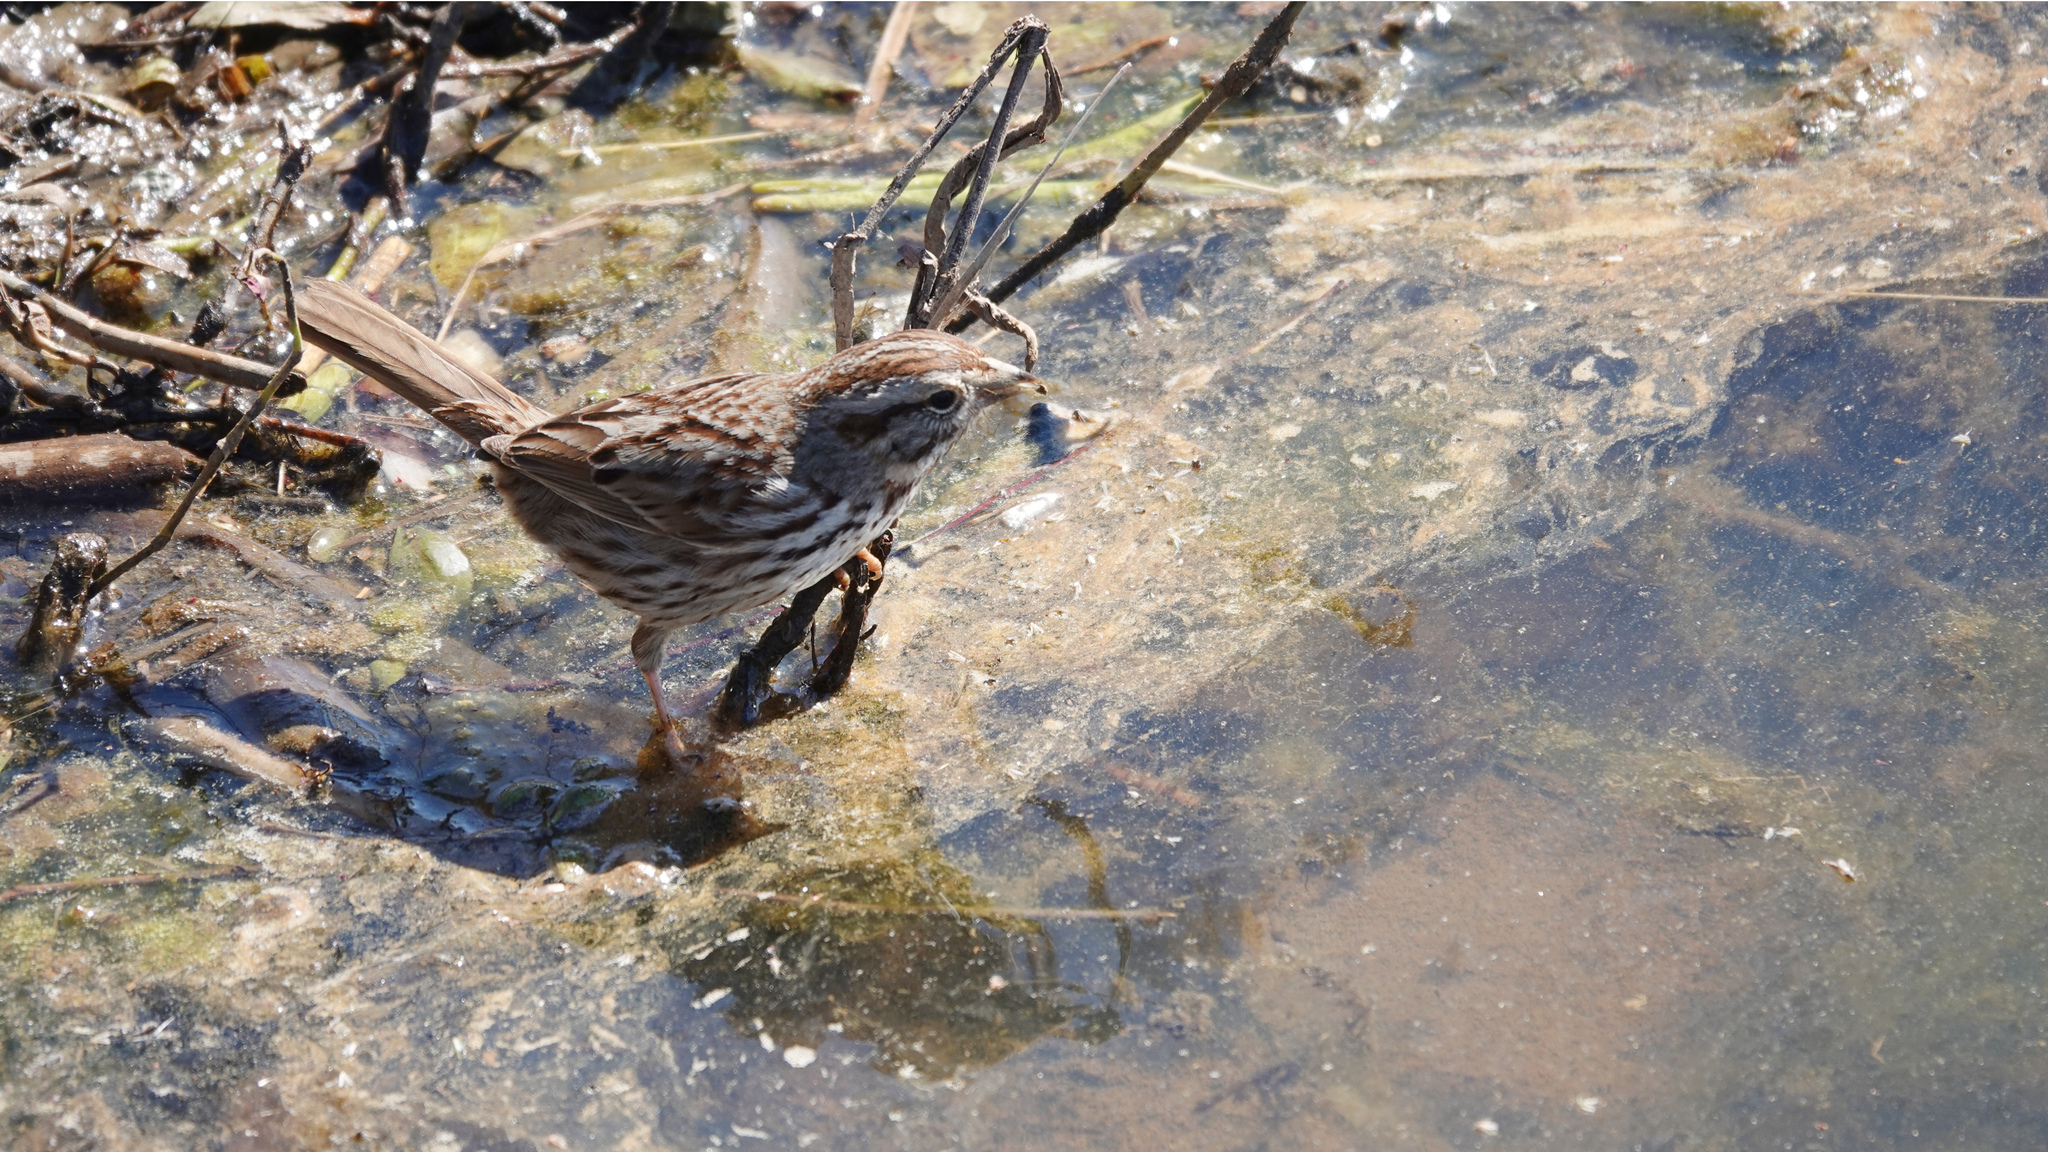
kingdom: Animalia
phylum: Chordata
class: Aves
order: Passeriformes
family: Passerellidae
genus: Melospiza
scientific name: Melospiza melodia
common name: Song sparrow
